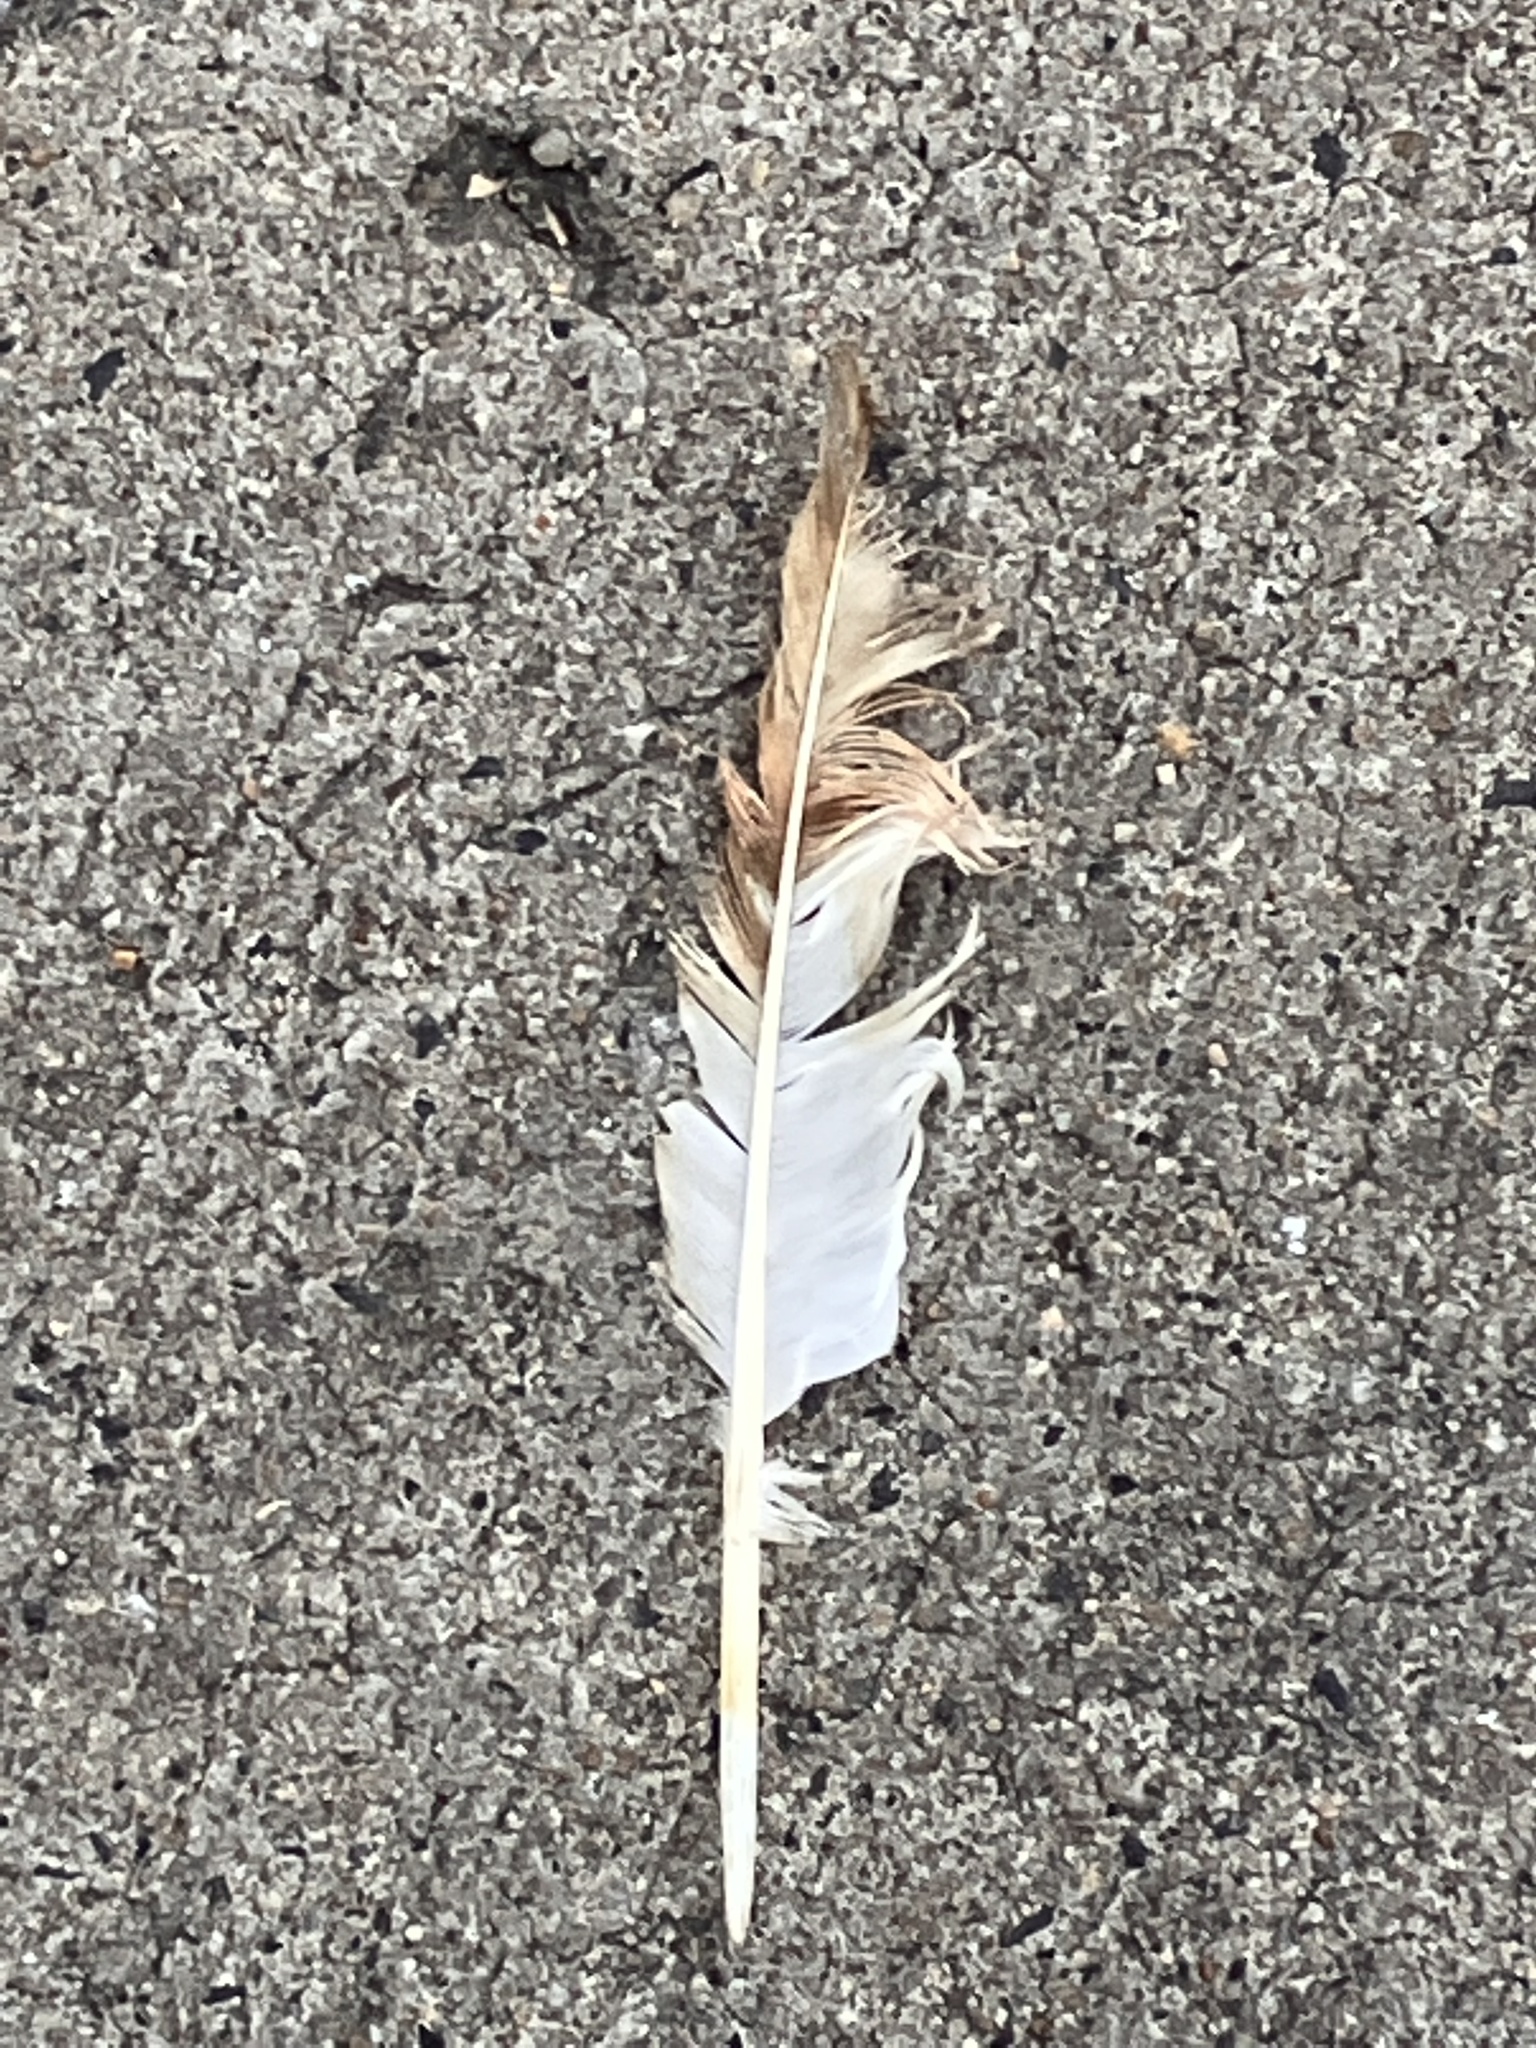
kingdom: Animalia
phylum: Chordata
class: Aves
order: Columbiformes
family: Columbidae
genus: Columba
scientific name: Columba livia
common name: Rock pigeon
